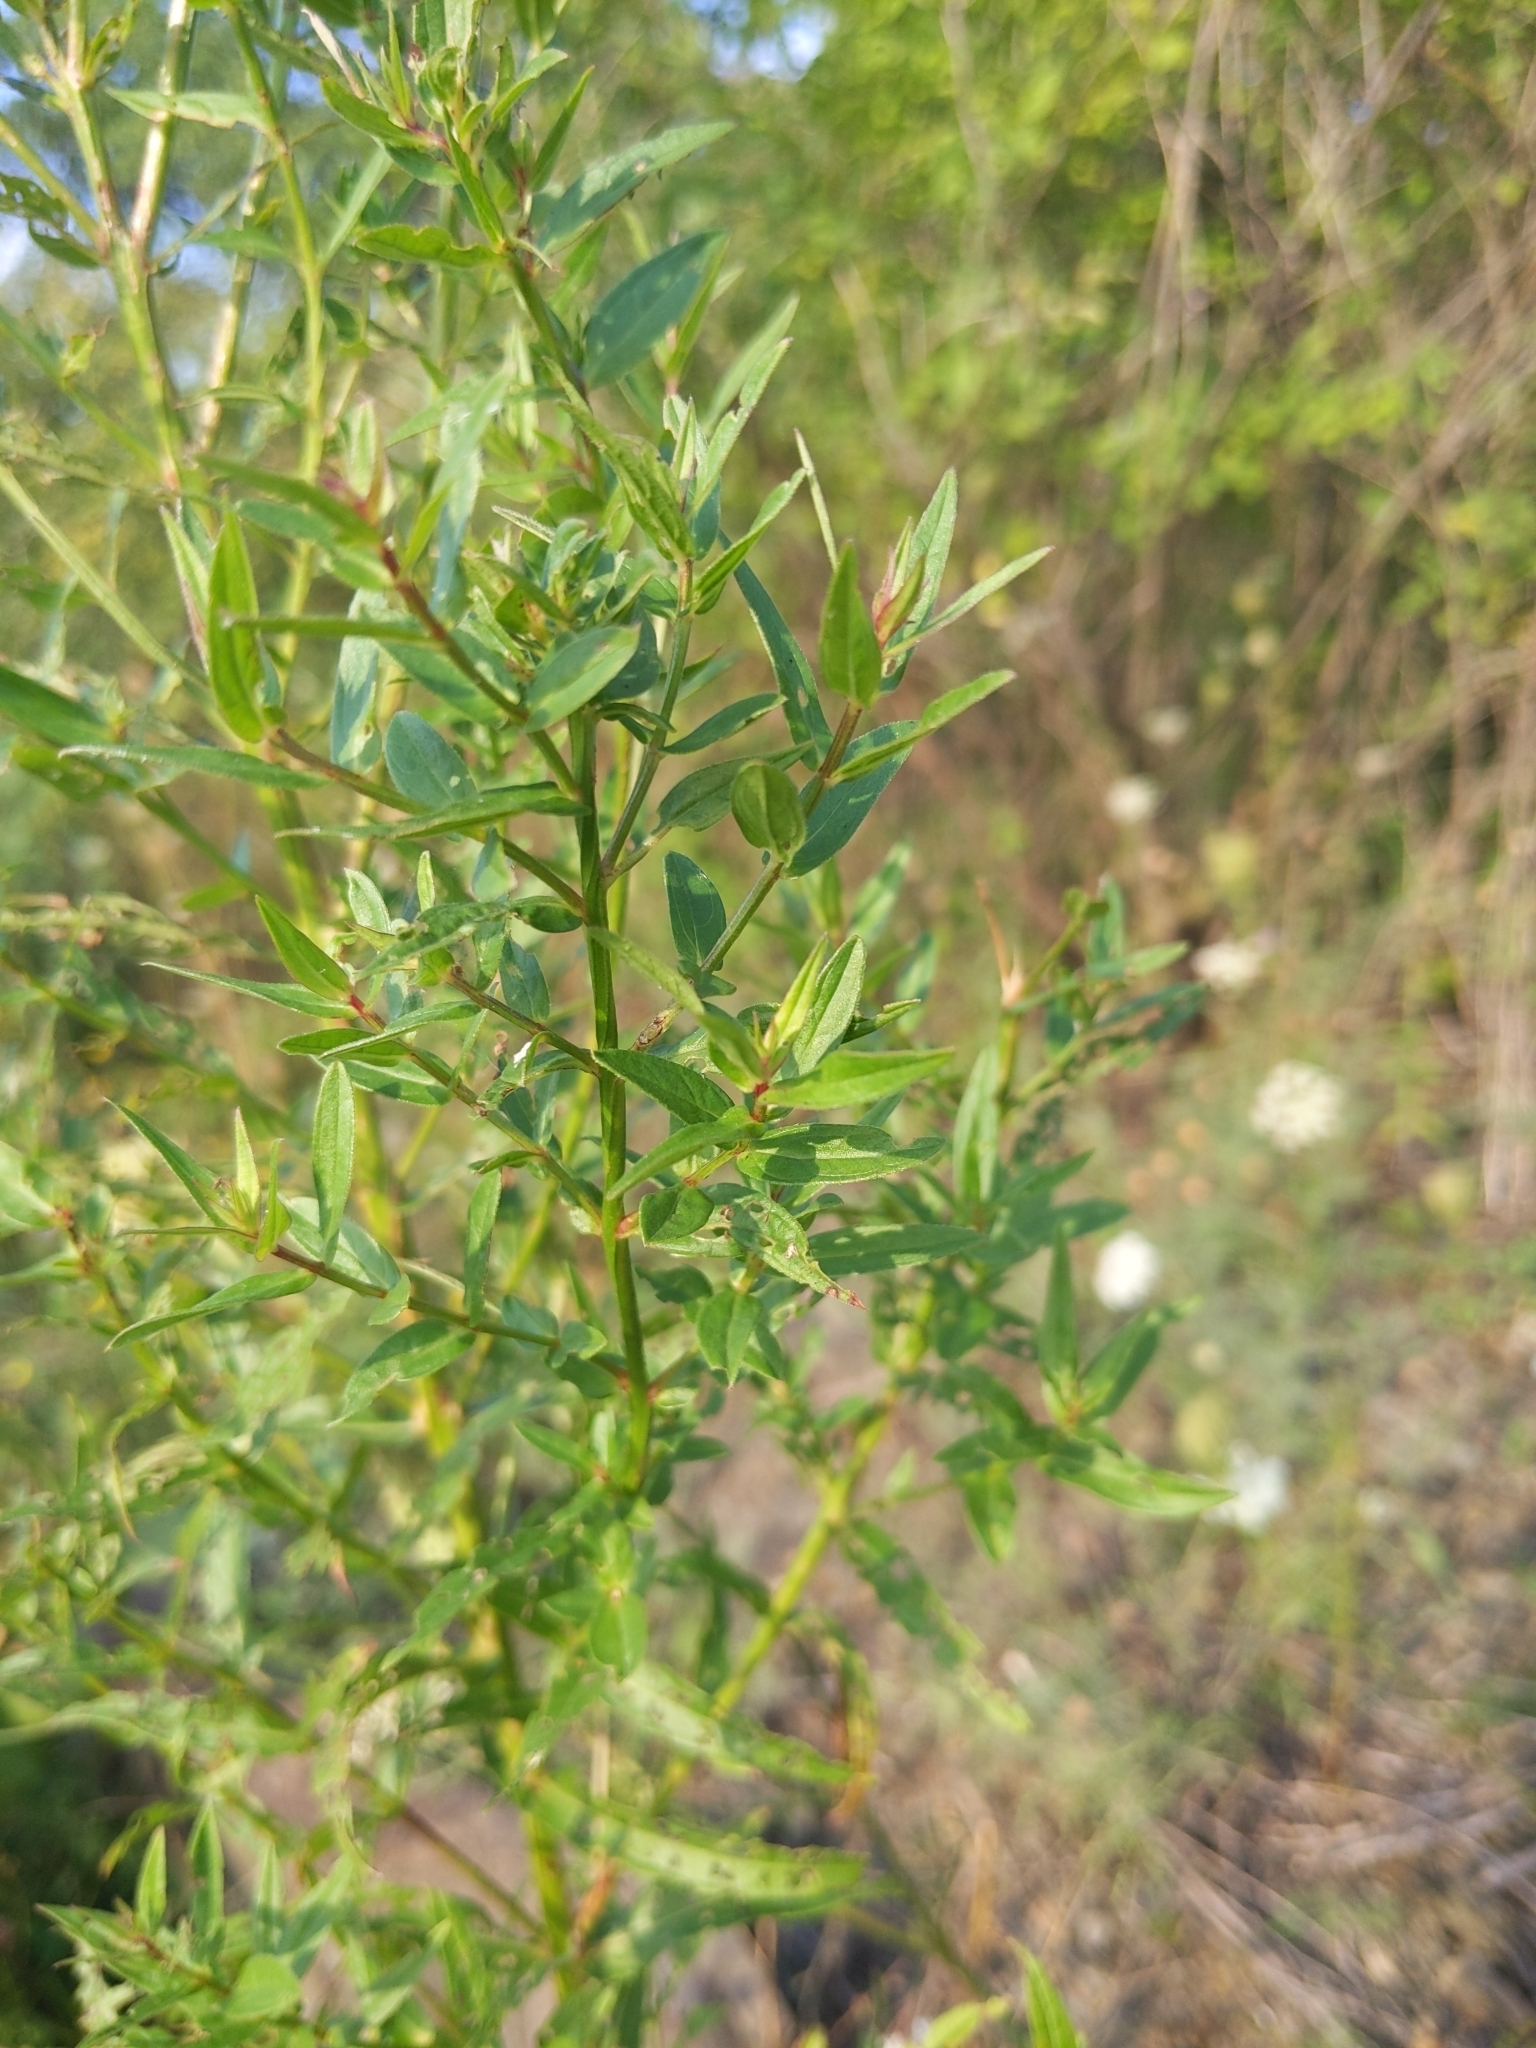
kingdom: Plantae
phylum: Tracheophyta
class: Magnoliopsida
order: Myrtales
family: Lythraceae
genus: Lythrum
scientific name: Lythrum salicaria
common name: Purple loosestrife
